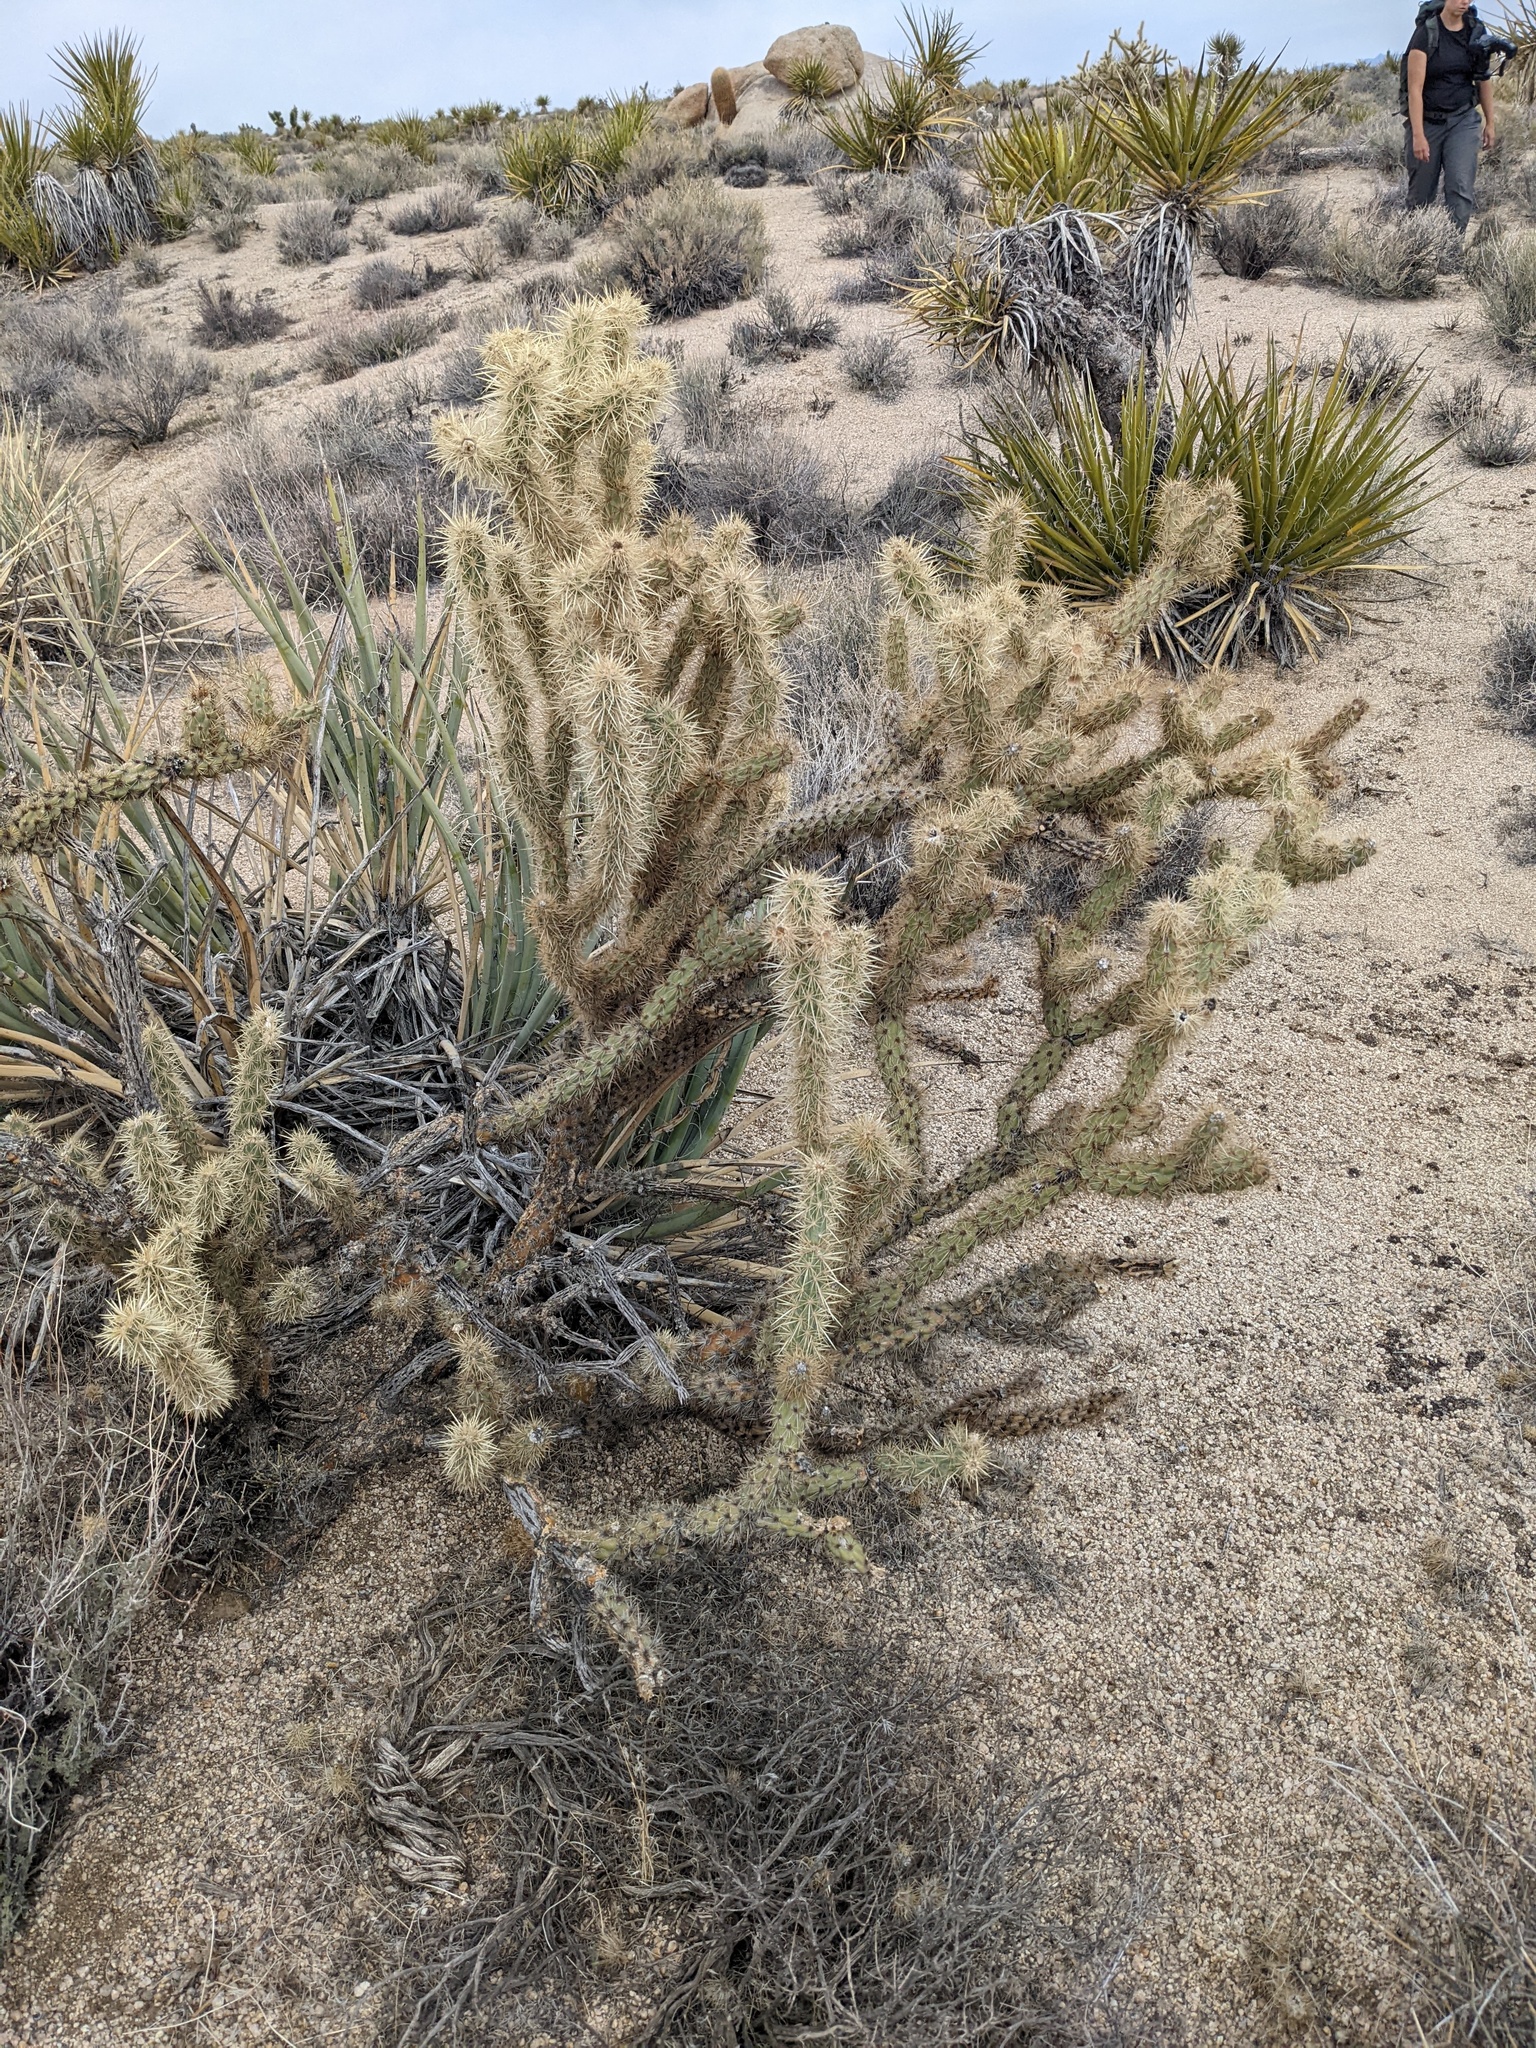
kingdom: Plantae
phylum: Tracheophyta
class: Magnoliopsida
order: Caryophyllales
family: Cactaceae
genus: Cylindropuntia
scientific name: Cylindropuntia acanthocarpa
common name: Buckhorn cholla
